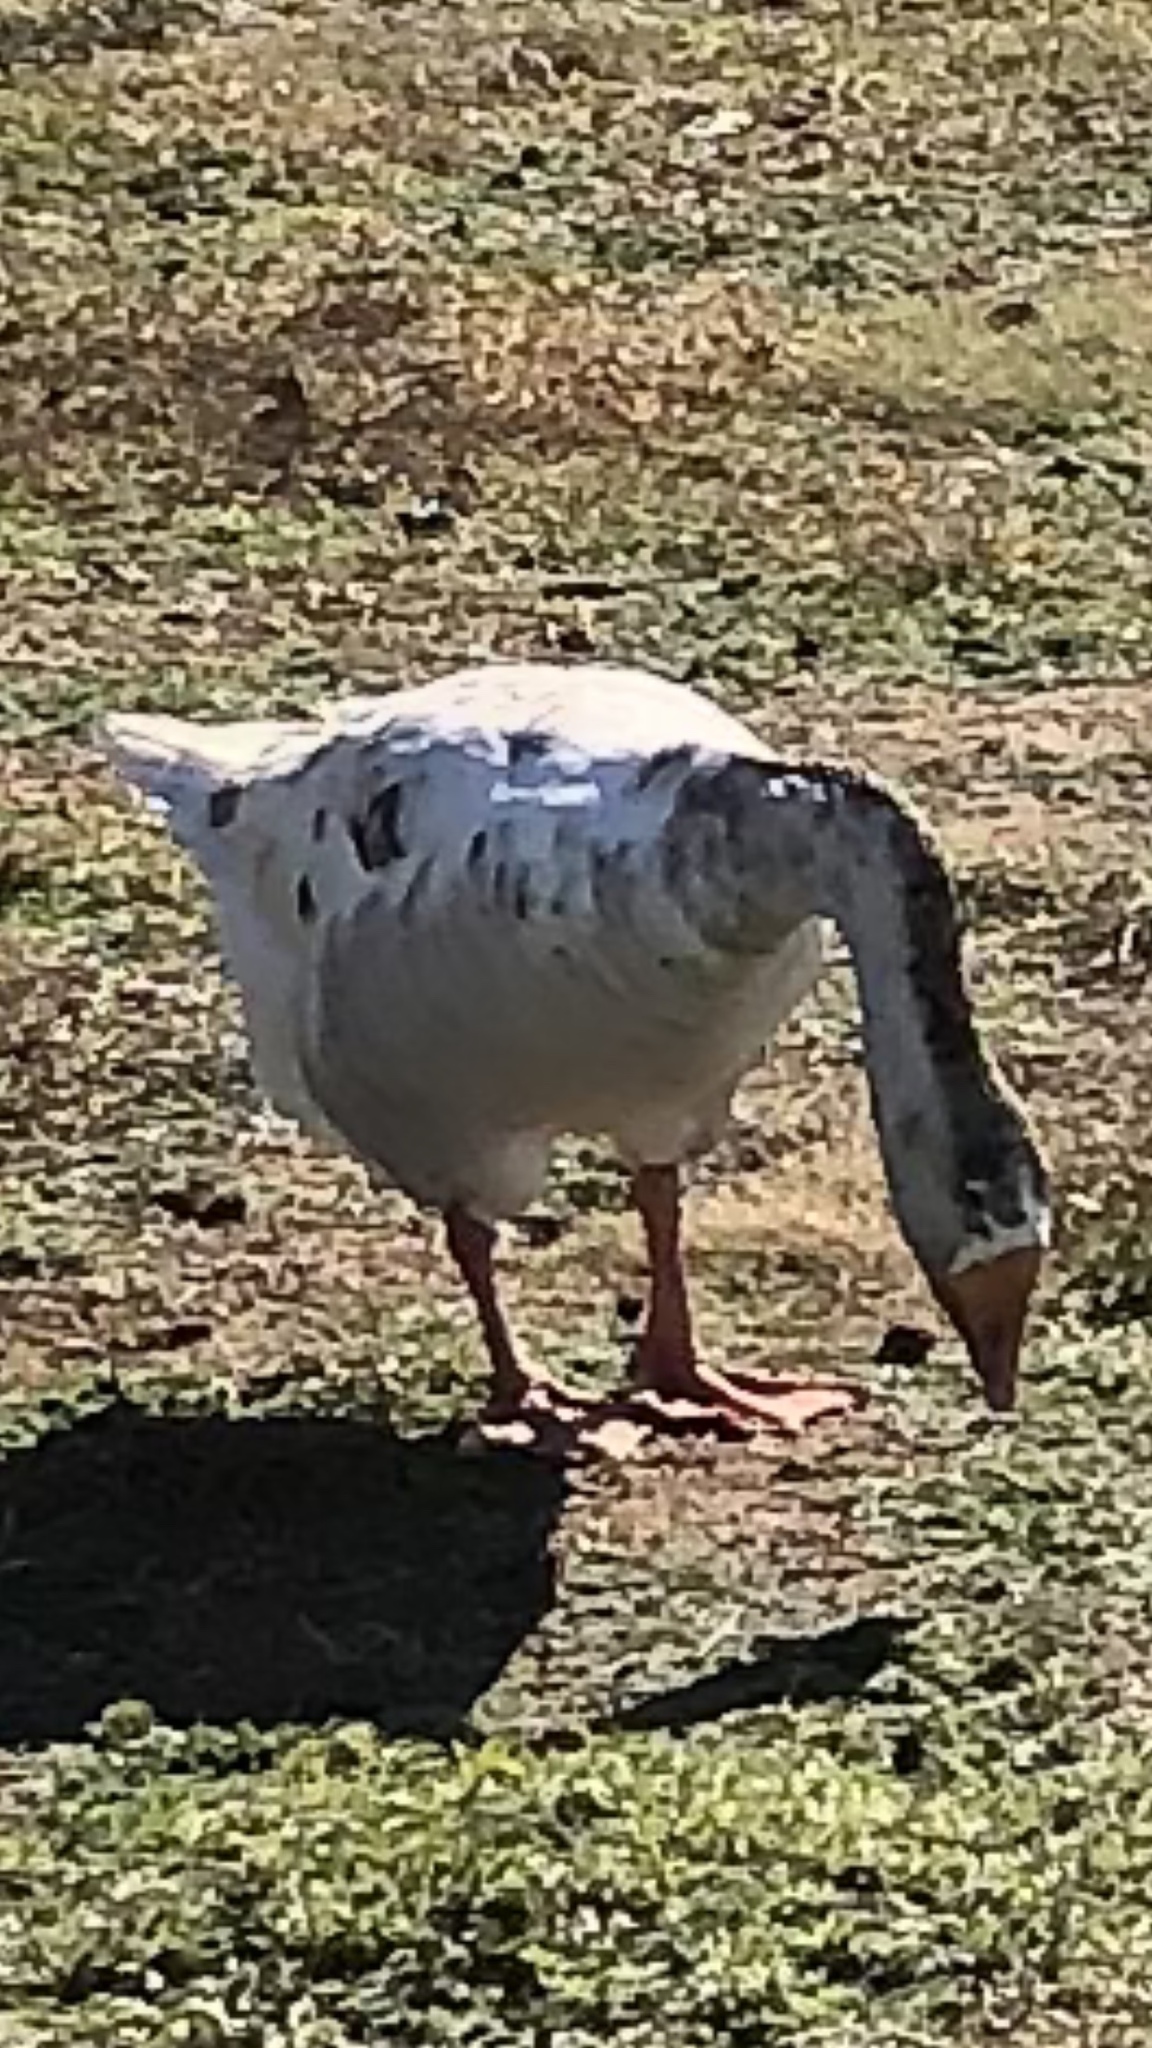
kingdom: Animalia
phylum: Chordata
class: Aves
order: Anseriformes
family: Anatidae
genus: Anser
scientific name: Anser
